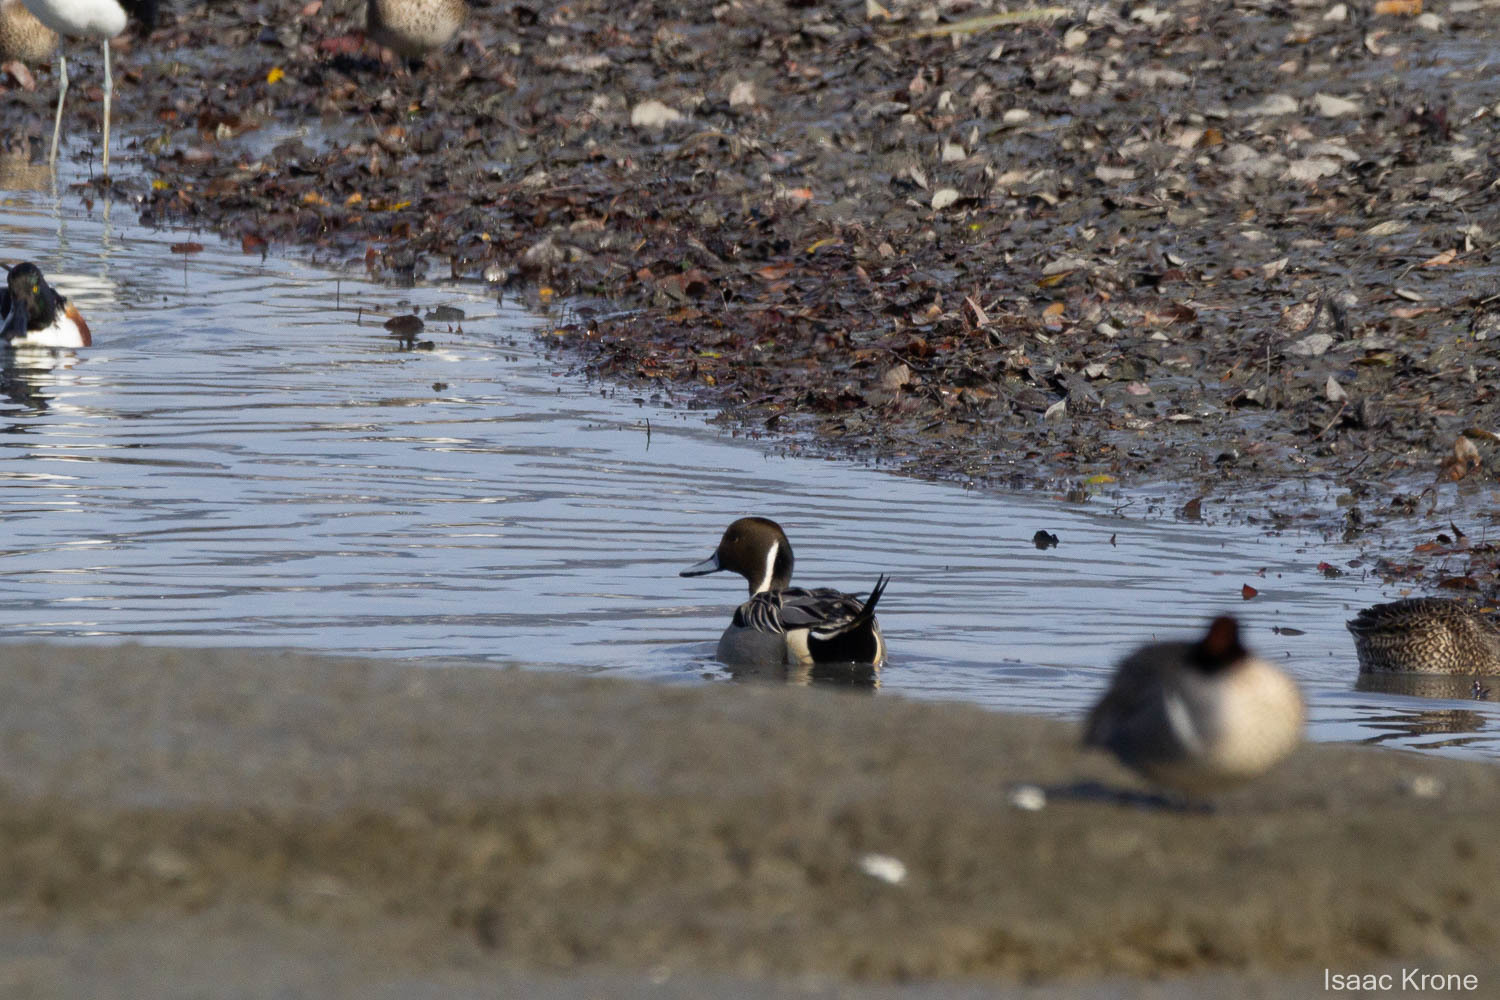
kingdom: Animalia
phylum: Chordata
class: Aves
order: Anseriformes
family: Anatidae
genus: Anas
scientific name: Anas acuta
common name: Northern pintail
